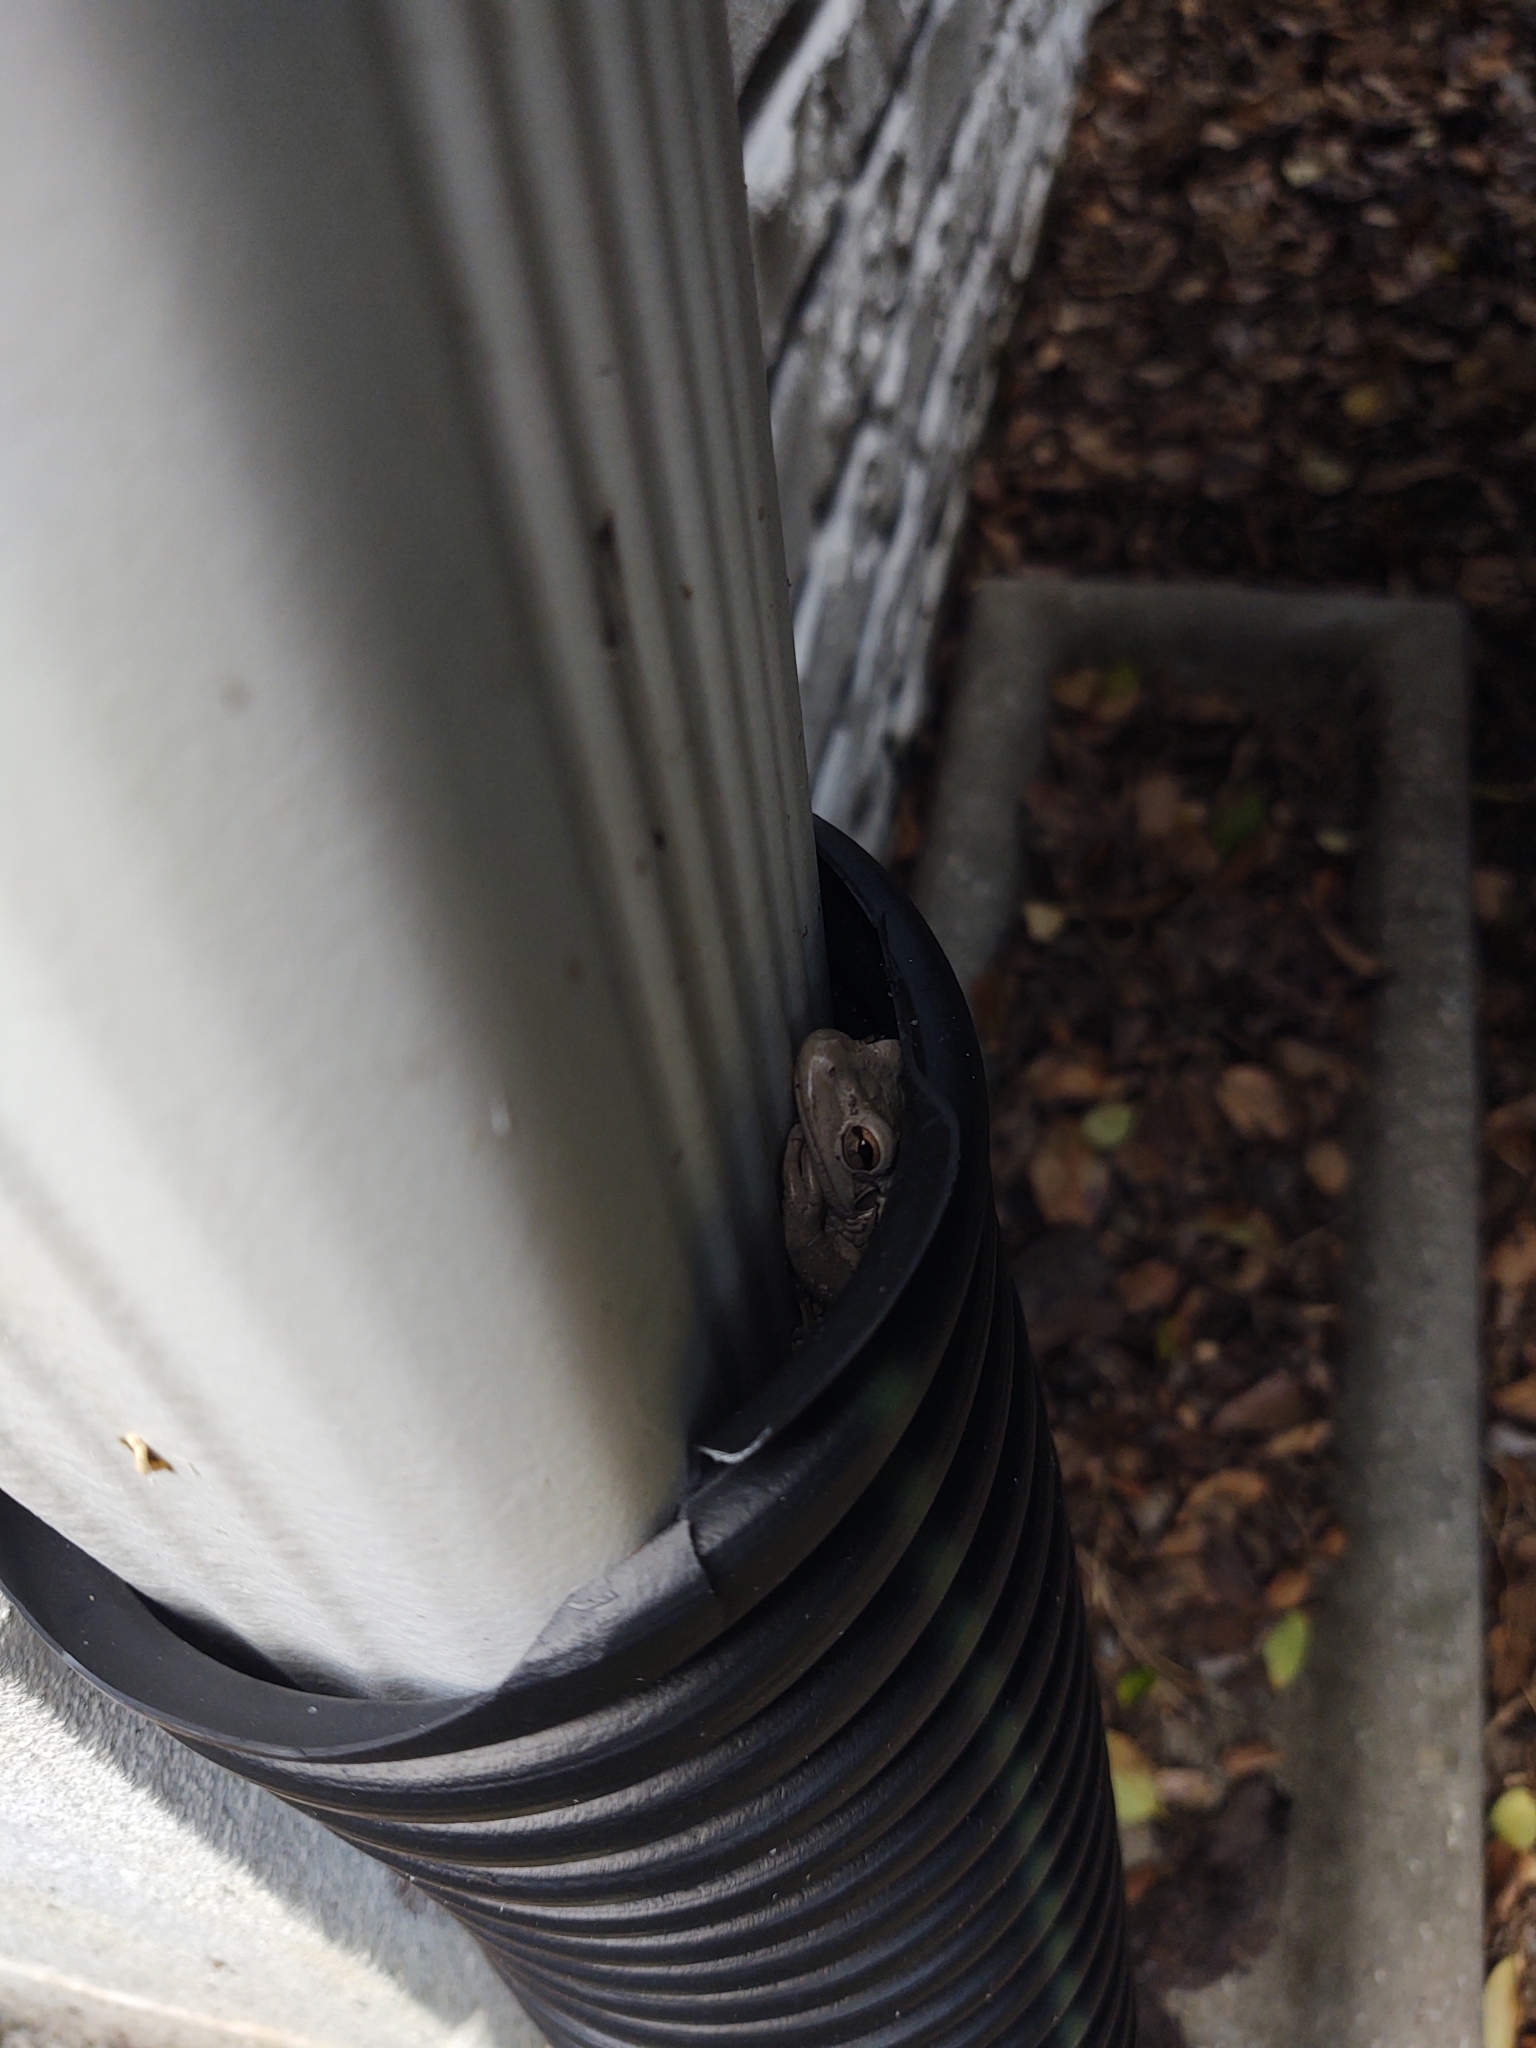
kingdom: Animalia
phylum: Chordata
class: Amphibia
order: Anura
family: Hylidae
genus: Osteopilus
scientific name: Osteopilus septentrionalis
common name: Cuban treefrog
